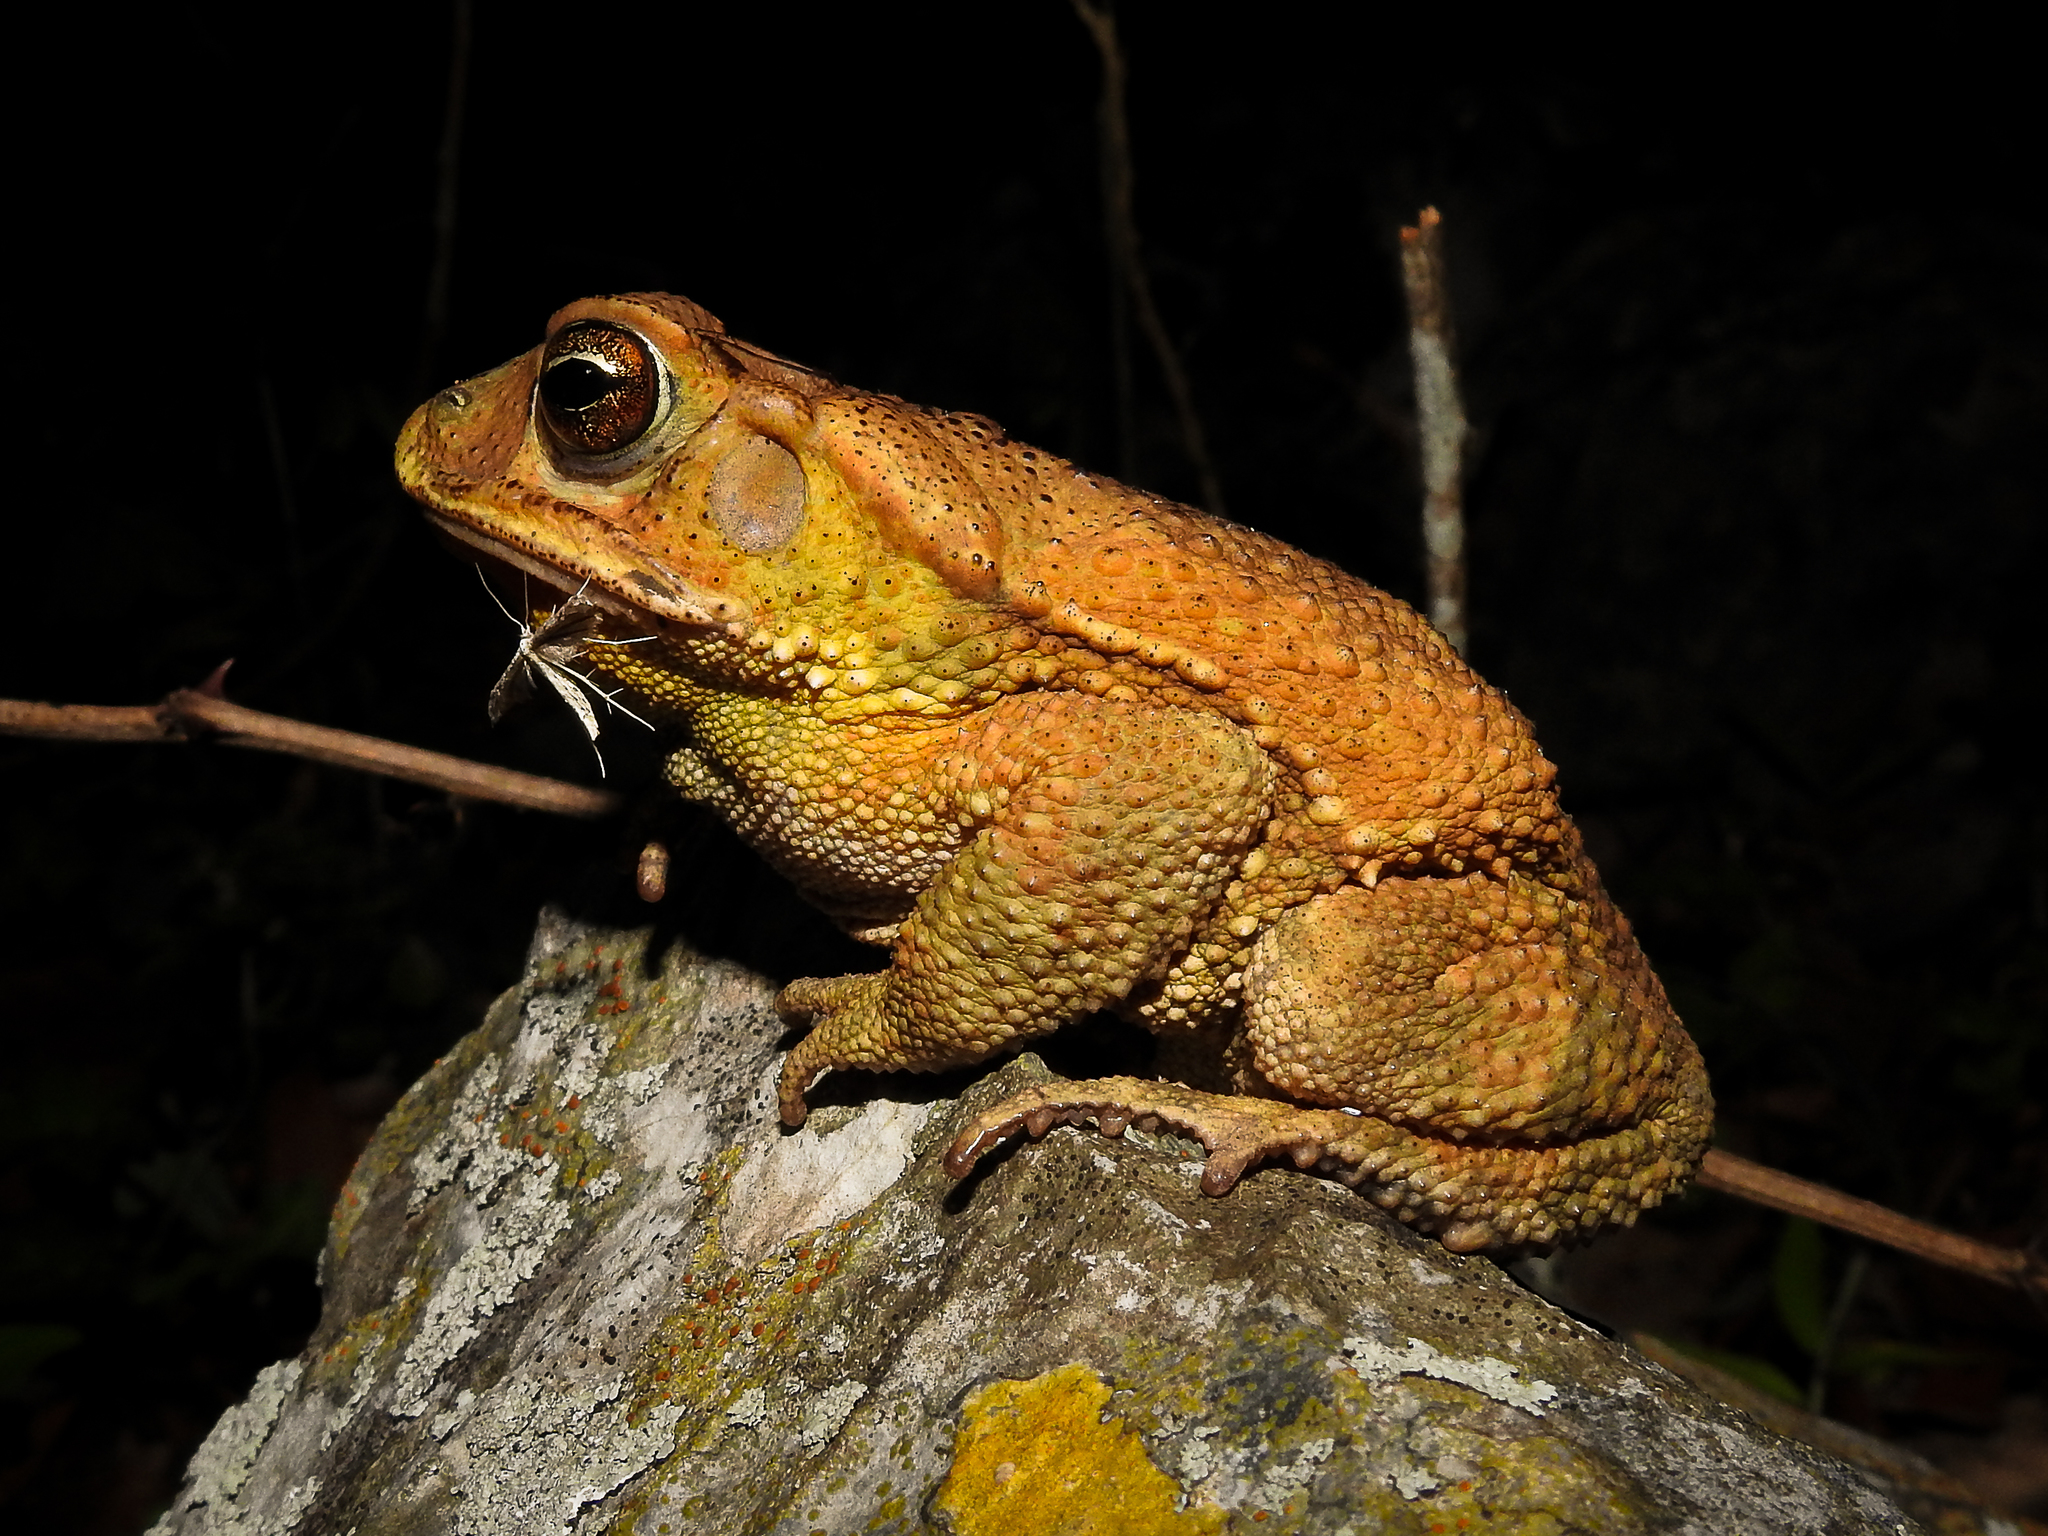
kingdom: Animalia
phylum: Chordata
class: Amphibia
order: Anura
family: Bufonidae
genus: Incilius
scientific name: Incilius nebulifer
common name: Gulf coast toad
